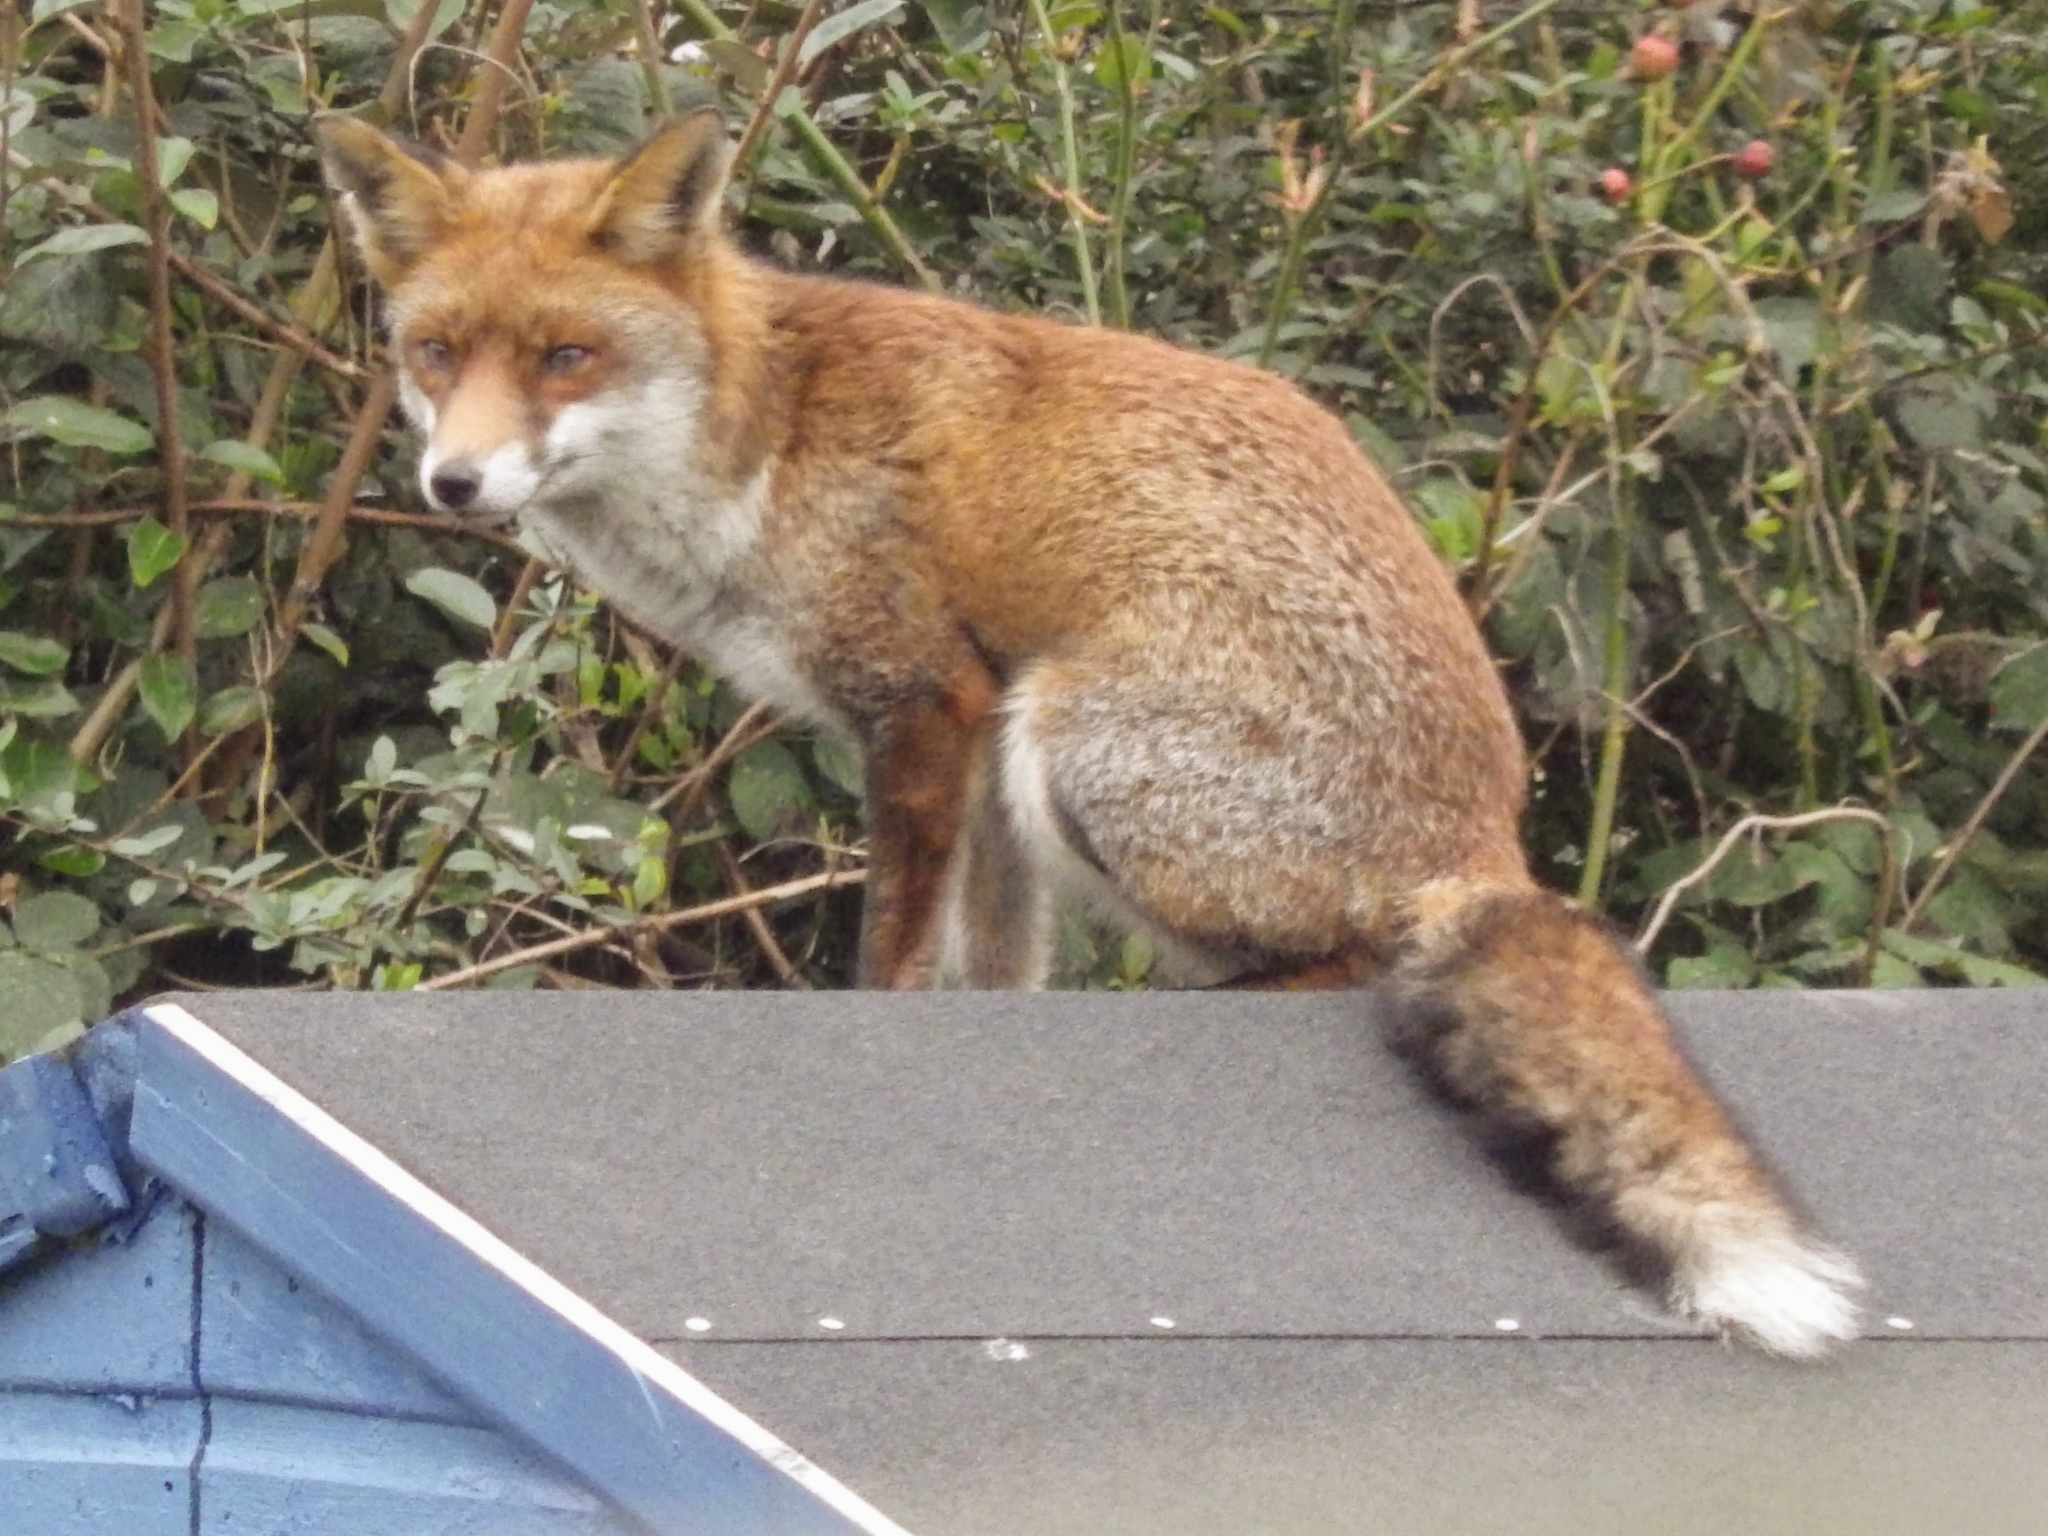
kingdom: Animalia
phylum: Chordata
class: Mammalia
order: Carnivora
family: Canidae
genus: Vulpes
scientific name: Vulpes vulpes
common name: Red fox
